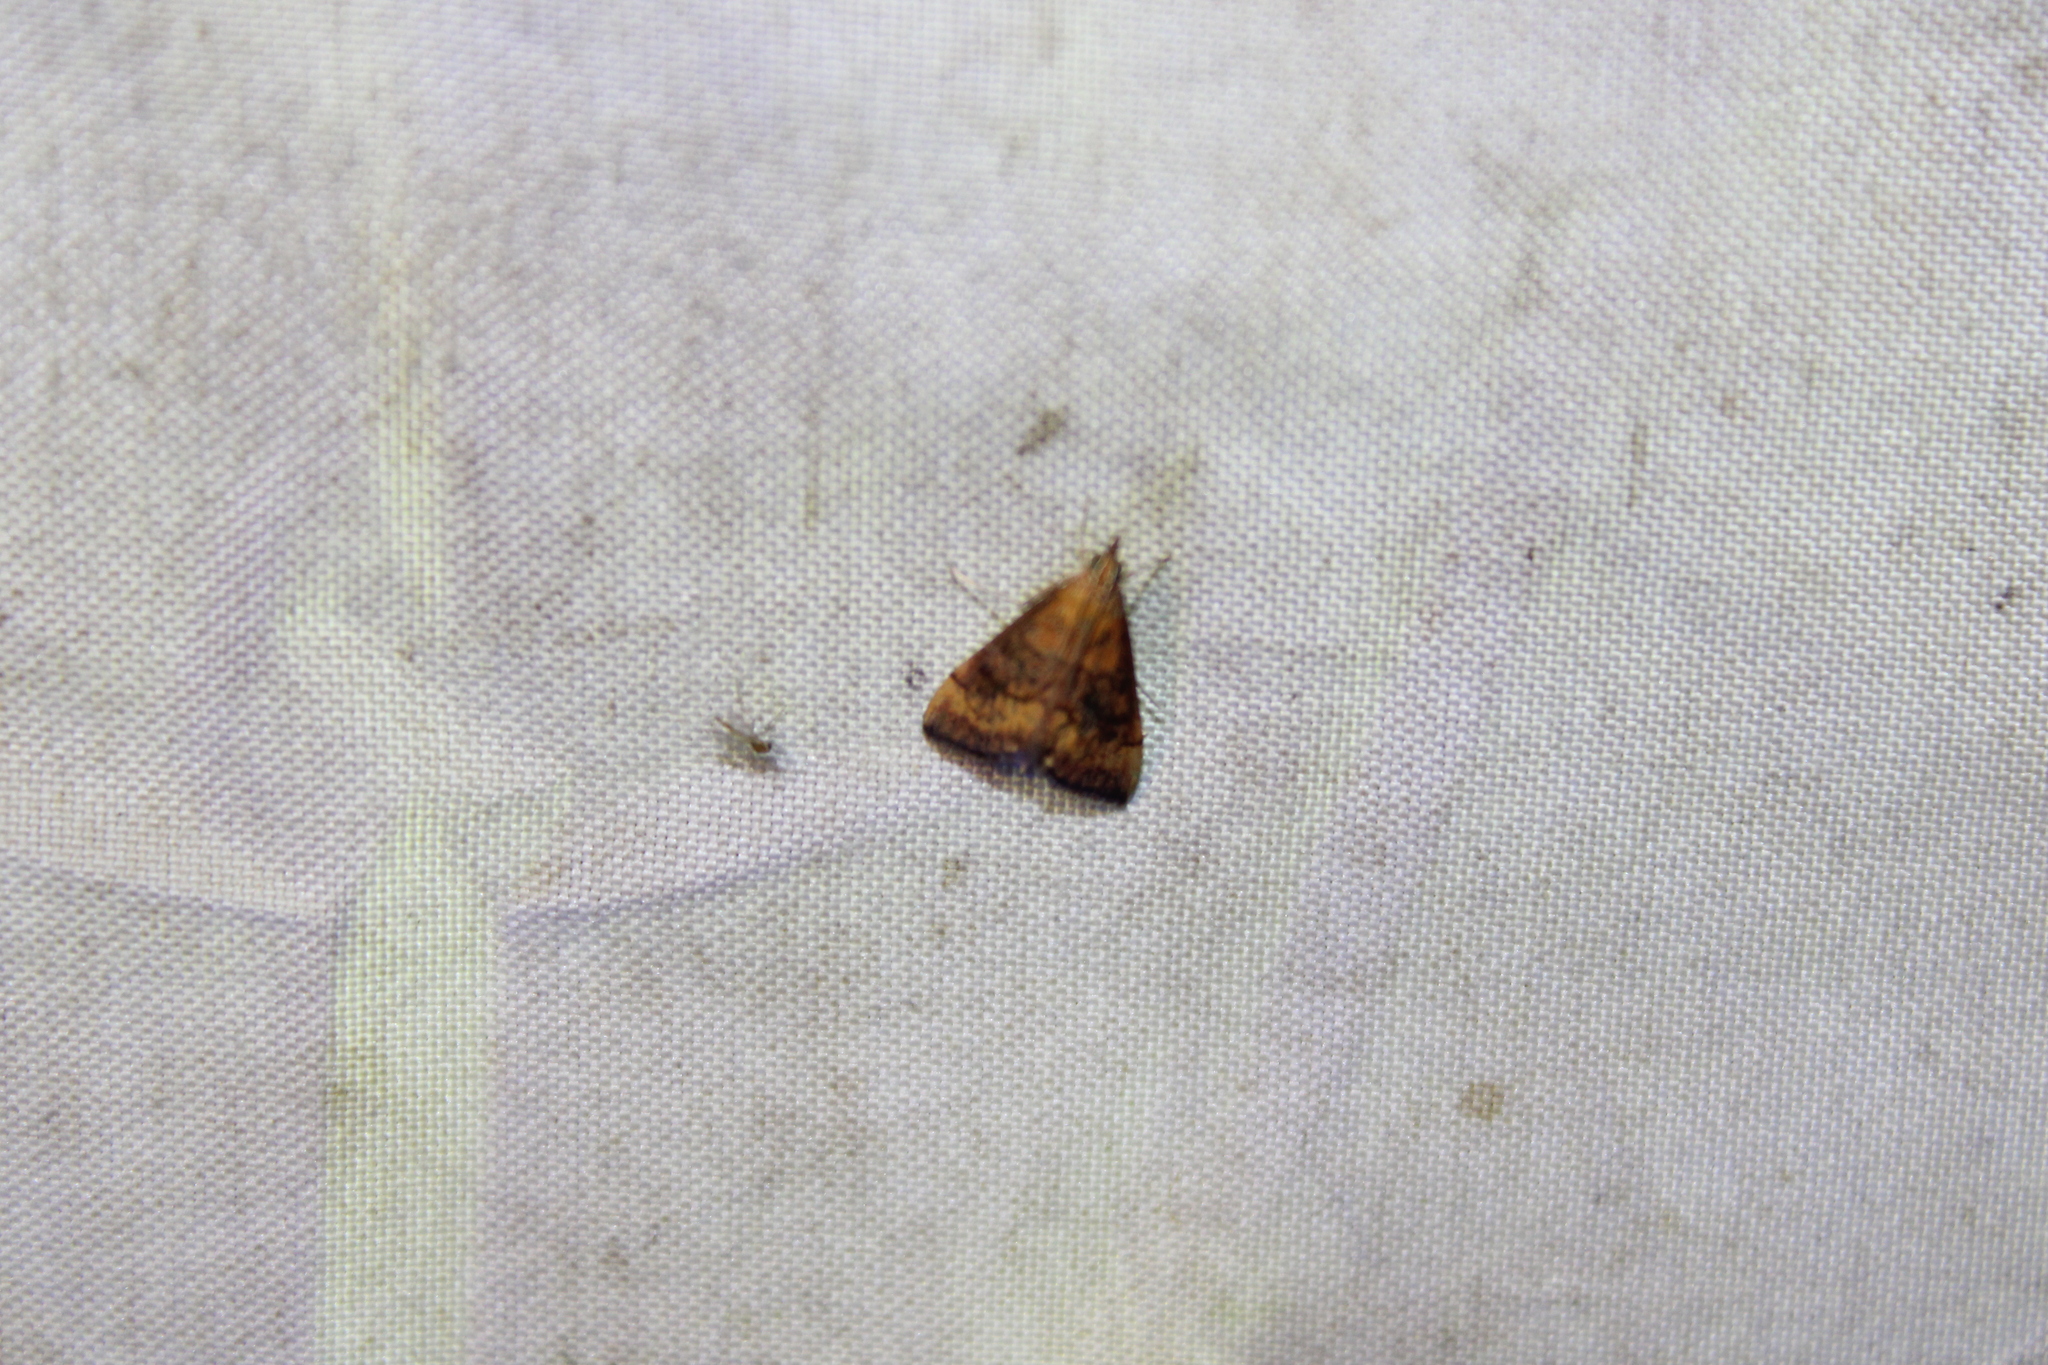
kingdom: Animalia
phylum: Arthropoda
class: Insecta
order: Lepidoptera
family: Crambidae
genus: Pyrausta
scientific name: Pyrausta rubricalis
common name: Variable reddish pyrausta
